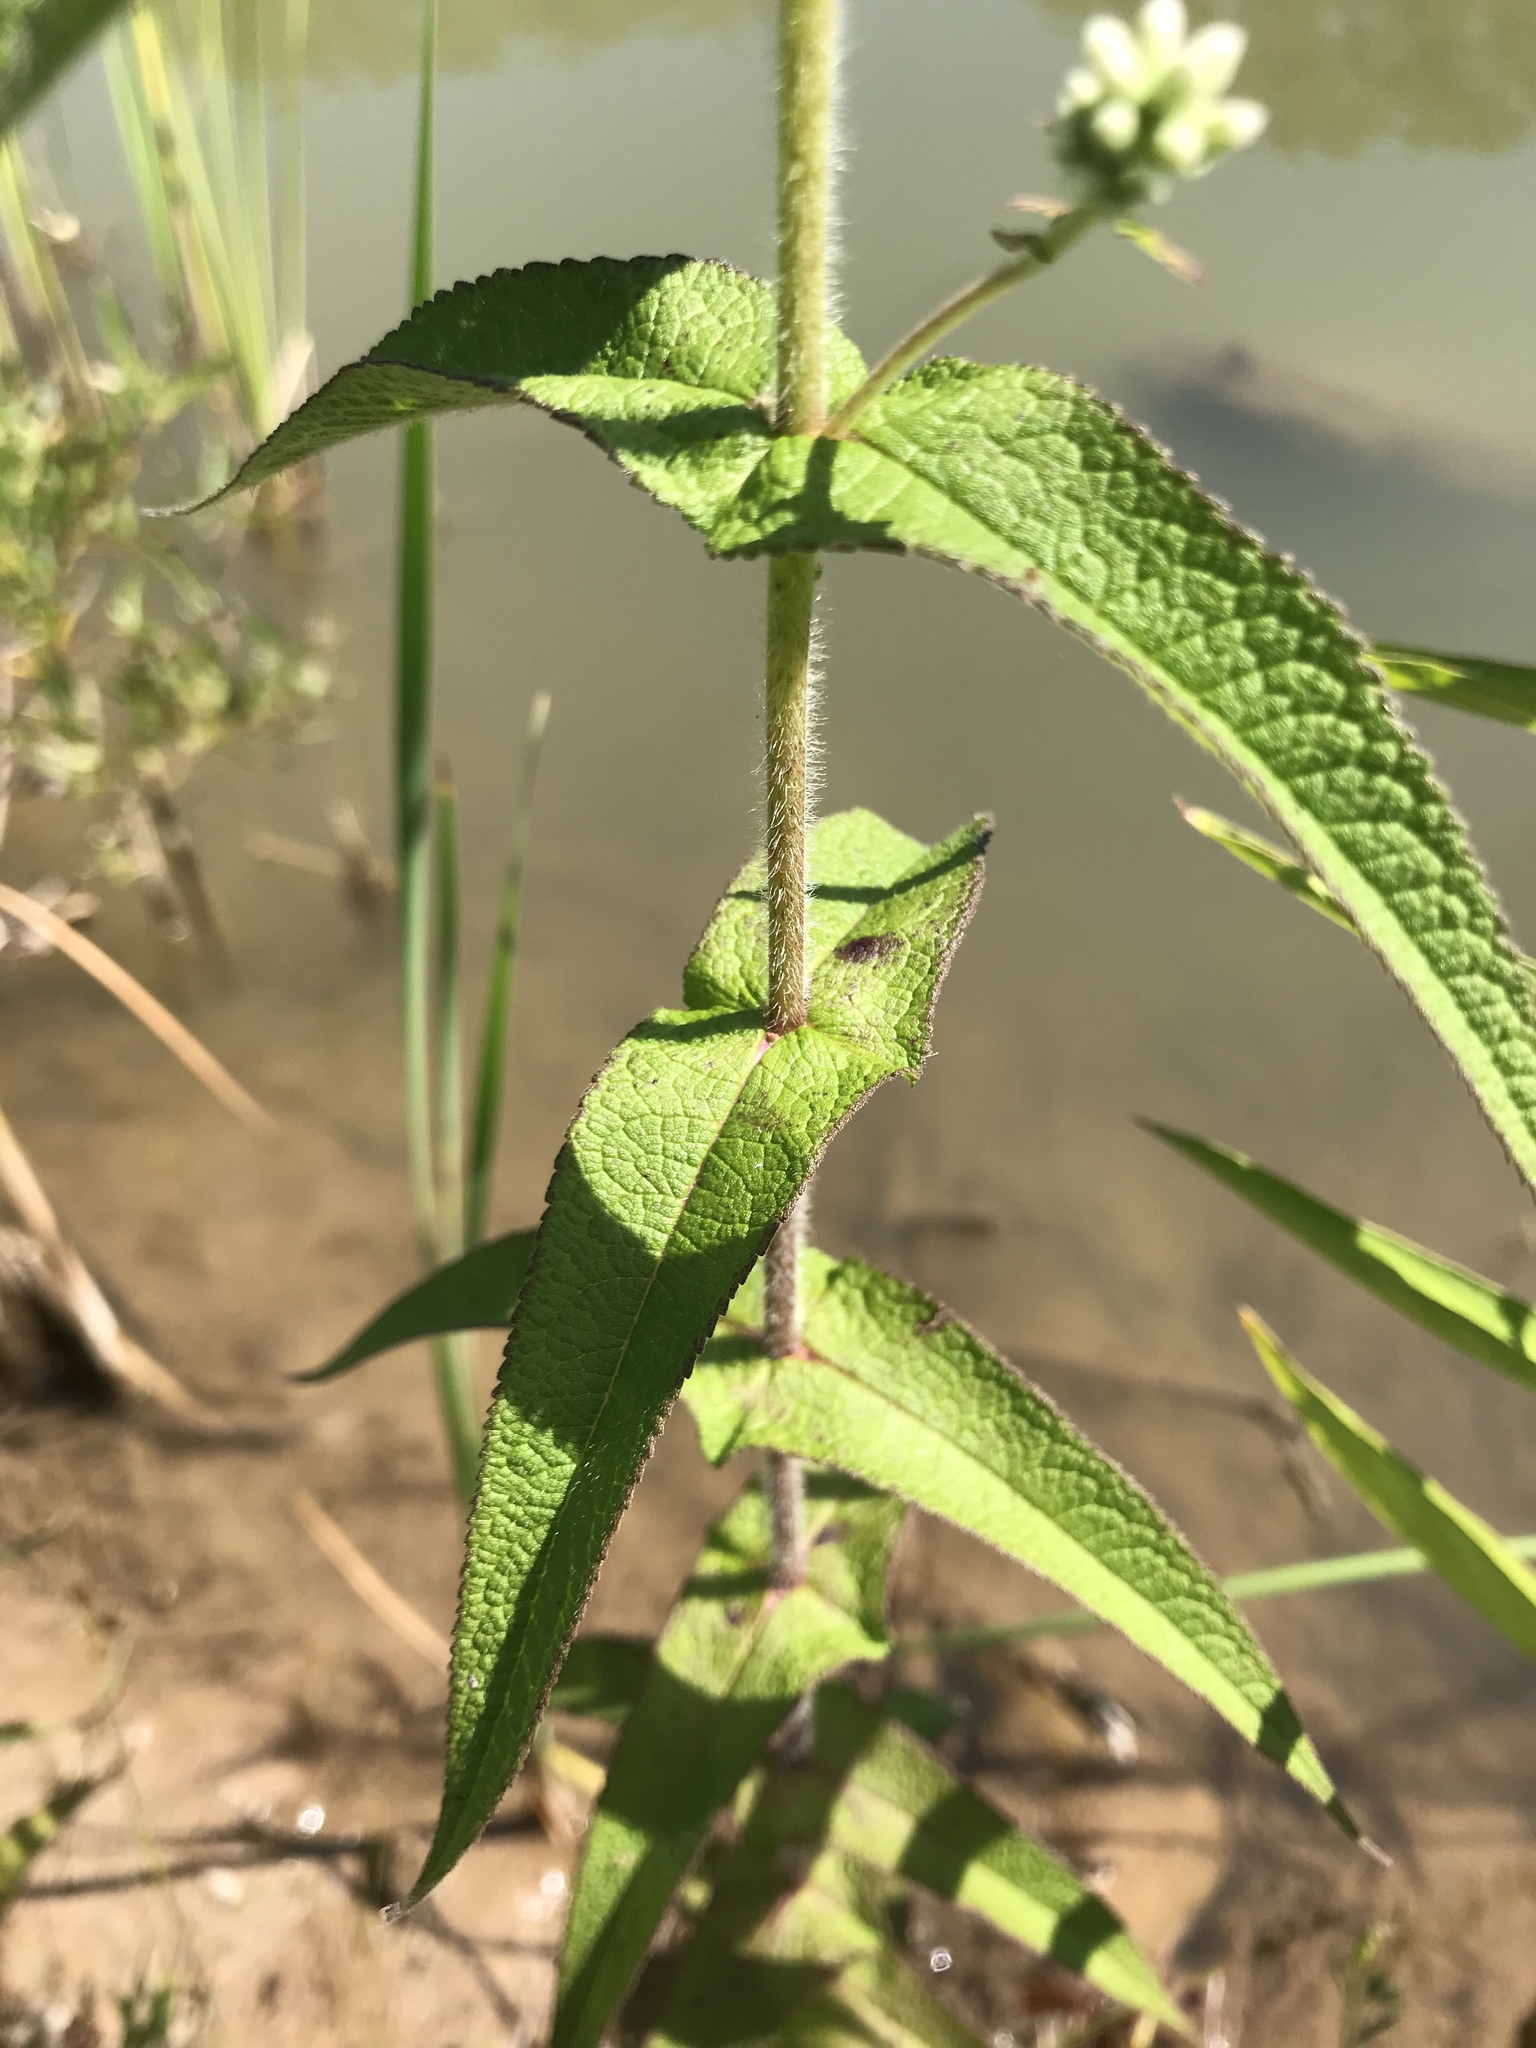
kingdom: Plantae
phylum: Tracheophyta
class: Magnoliopsida
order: Asterales
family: Asteraceae
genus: Eupatorium
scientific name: Eupatorium perfoliatum
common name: Boneset
